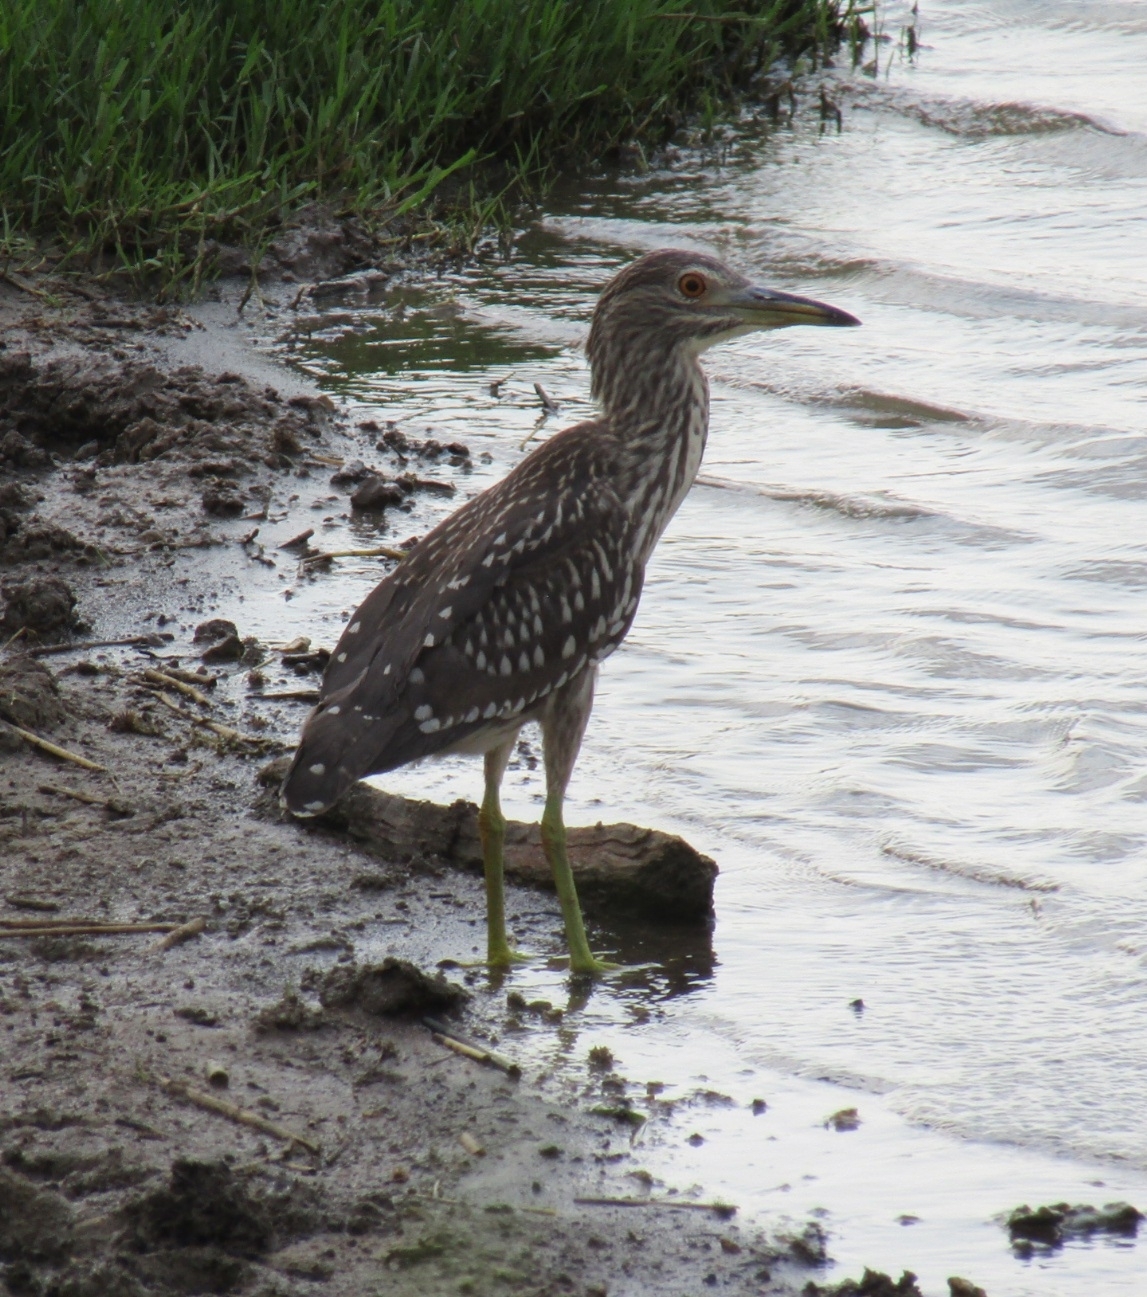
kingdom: Animalia
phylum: Chordata
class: Aves
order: Pelecaniformes
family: Ardeidae
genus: Nycticorax
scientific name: Nycticorax nycticorax
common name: Black-crowned night heron
